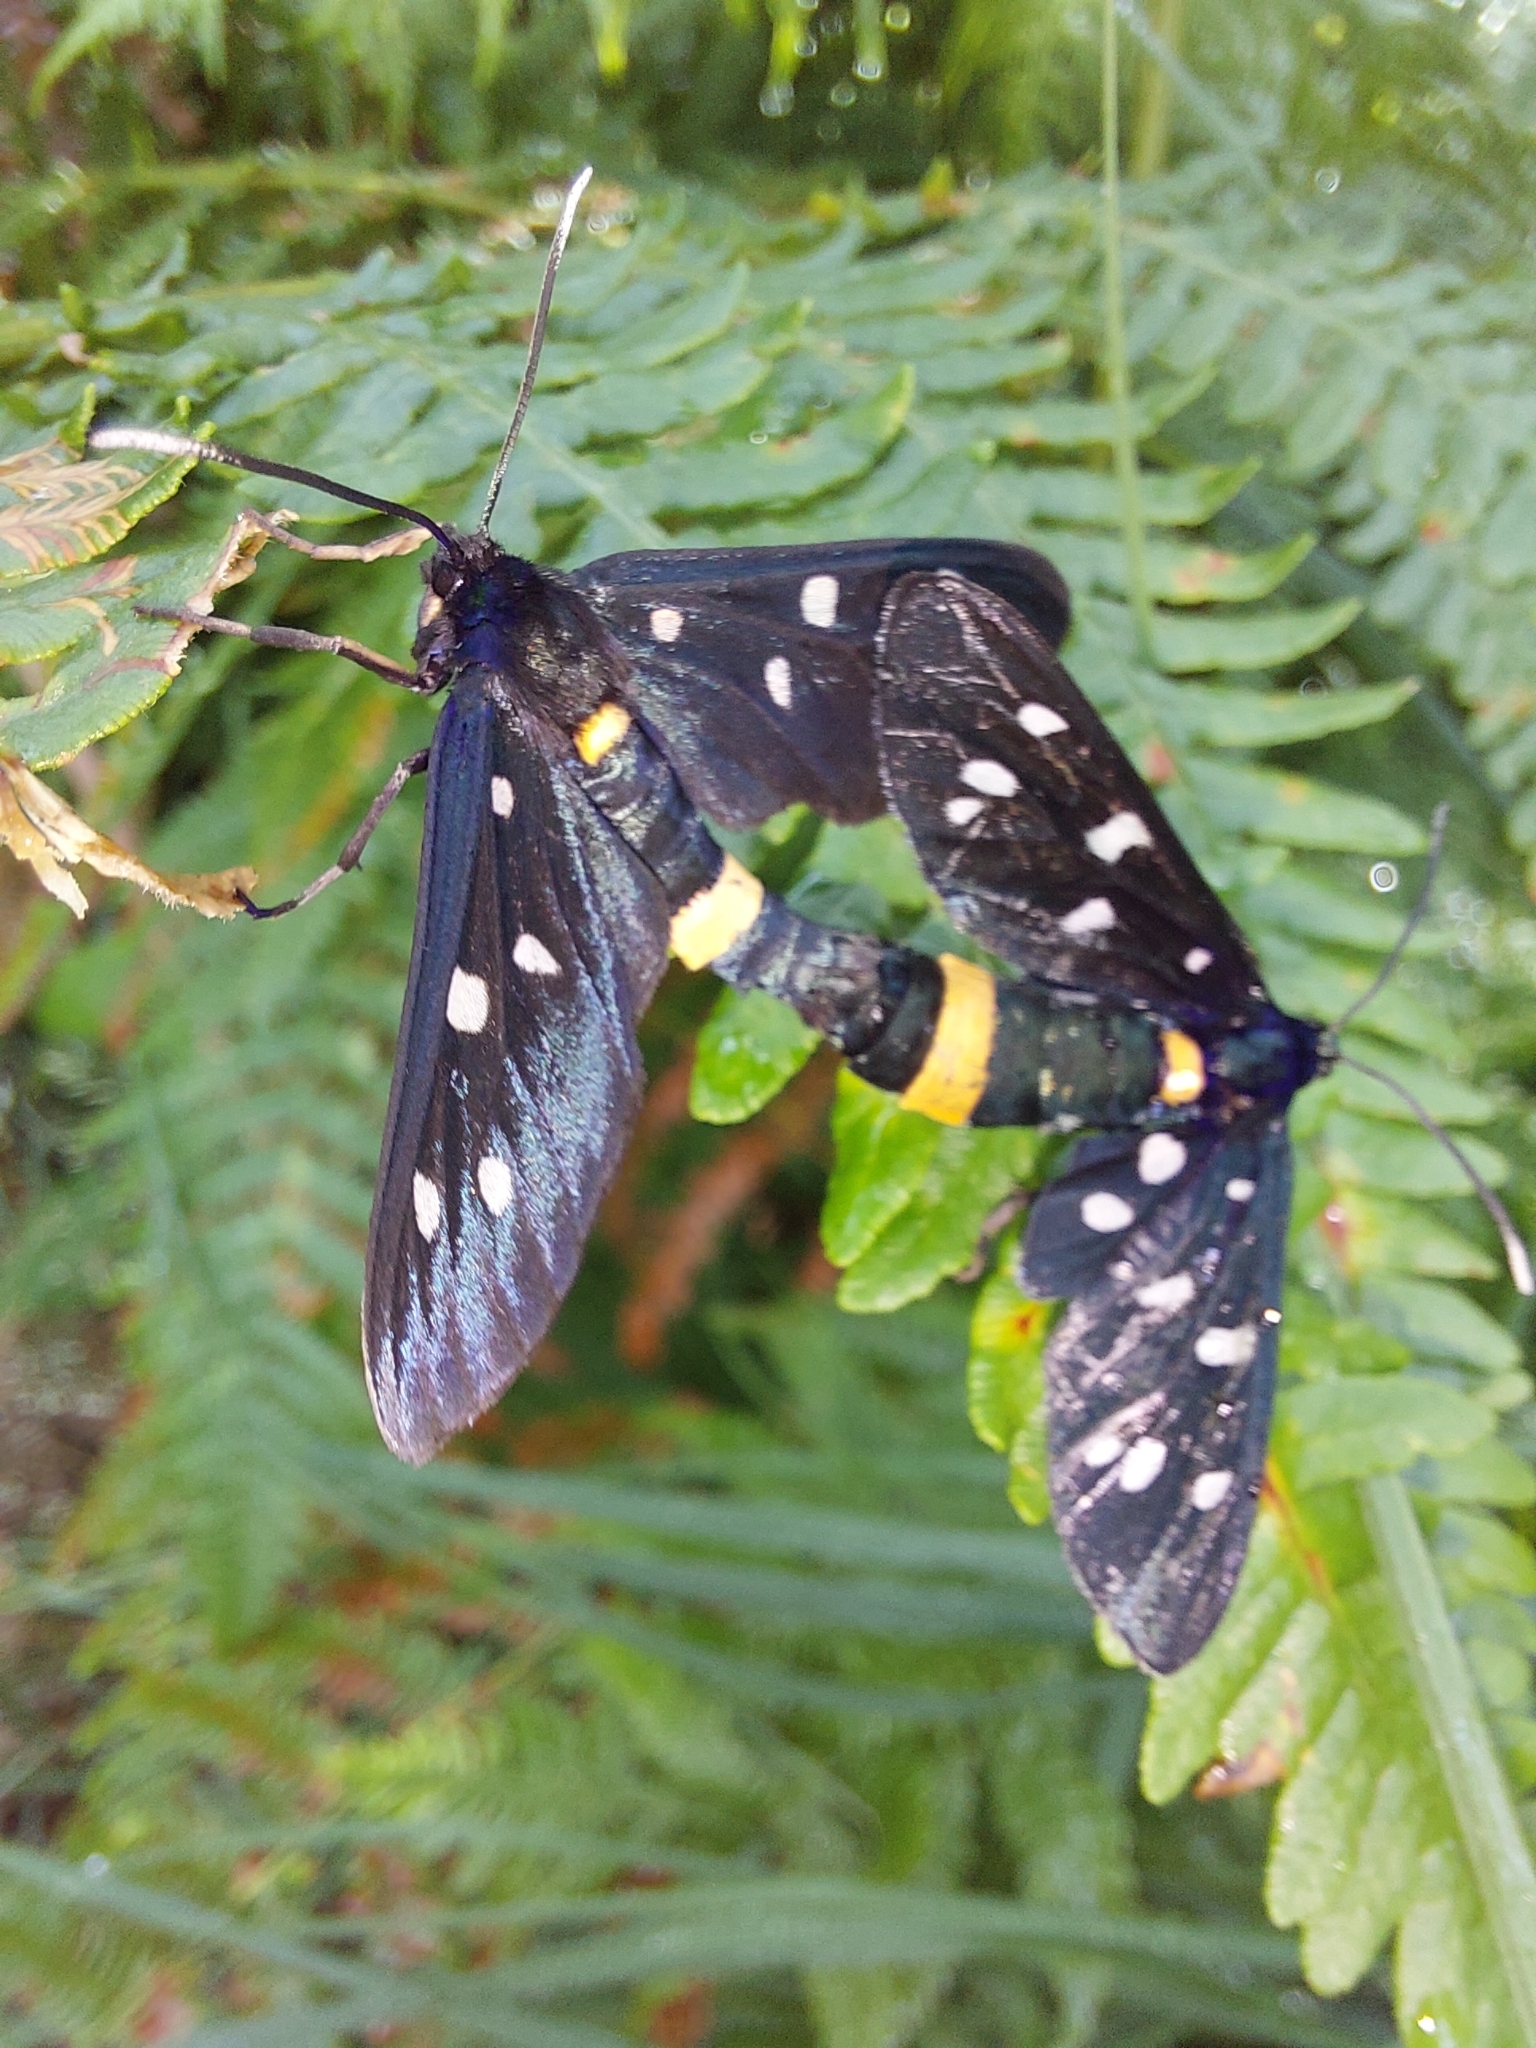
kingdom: Animalia
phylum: Arthropoda
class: Insecta
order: Lepidoptera
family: Erebidae
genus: Amata
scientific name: Amata phegea
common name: Nine-spotted
